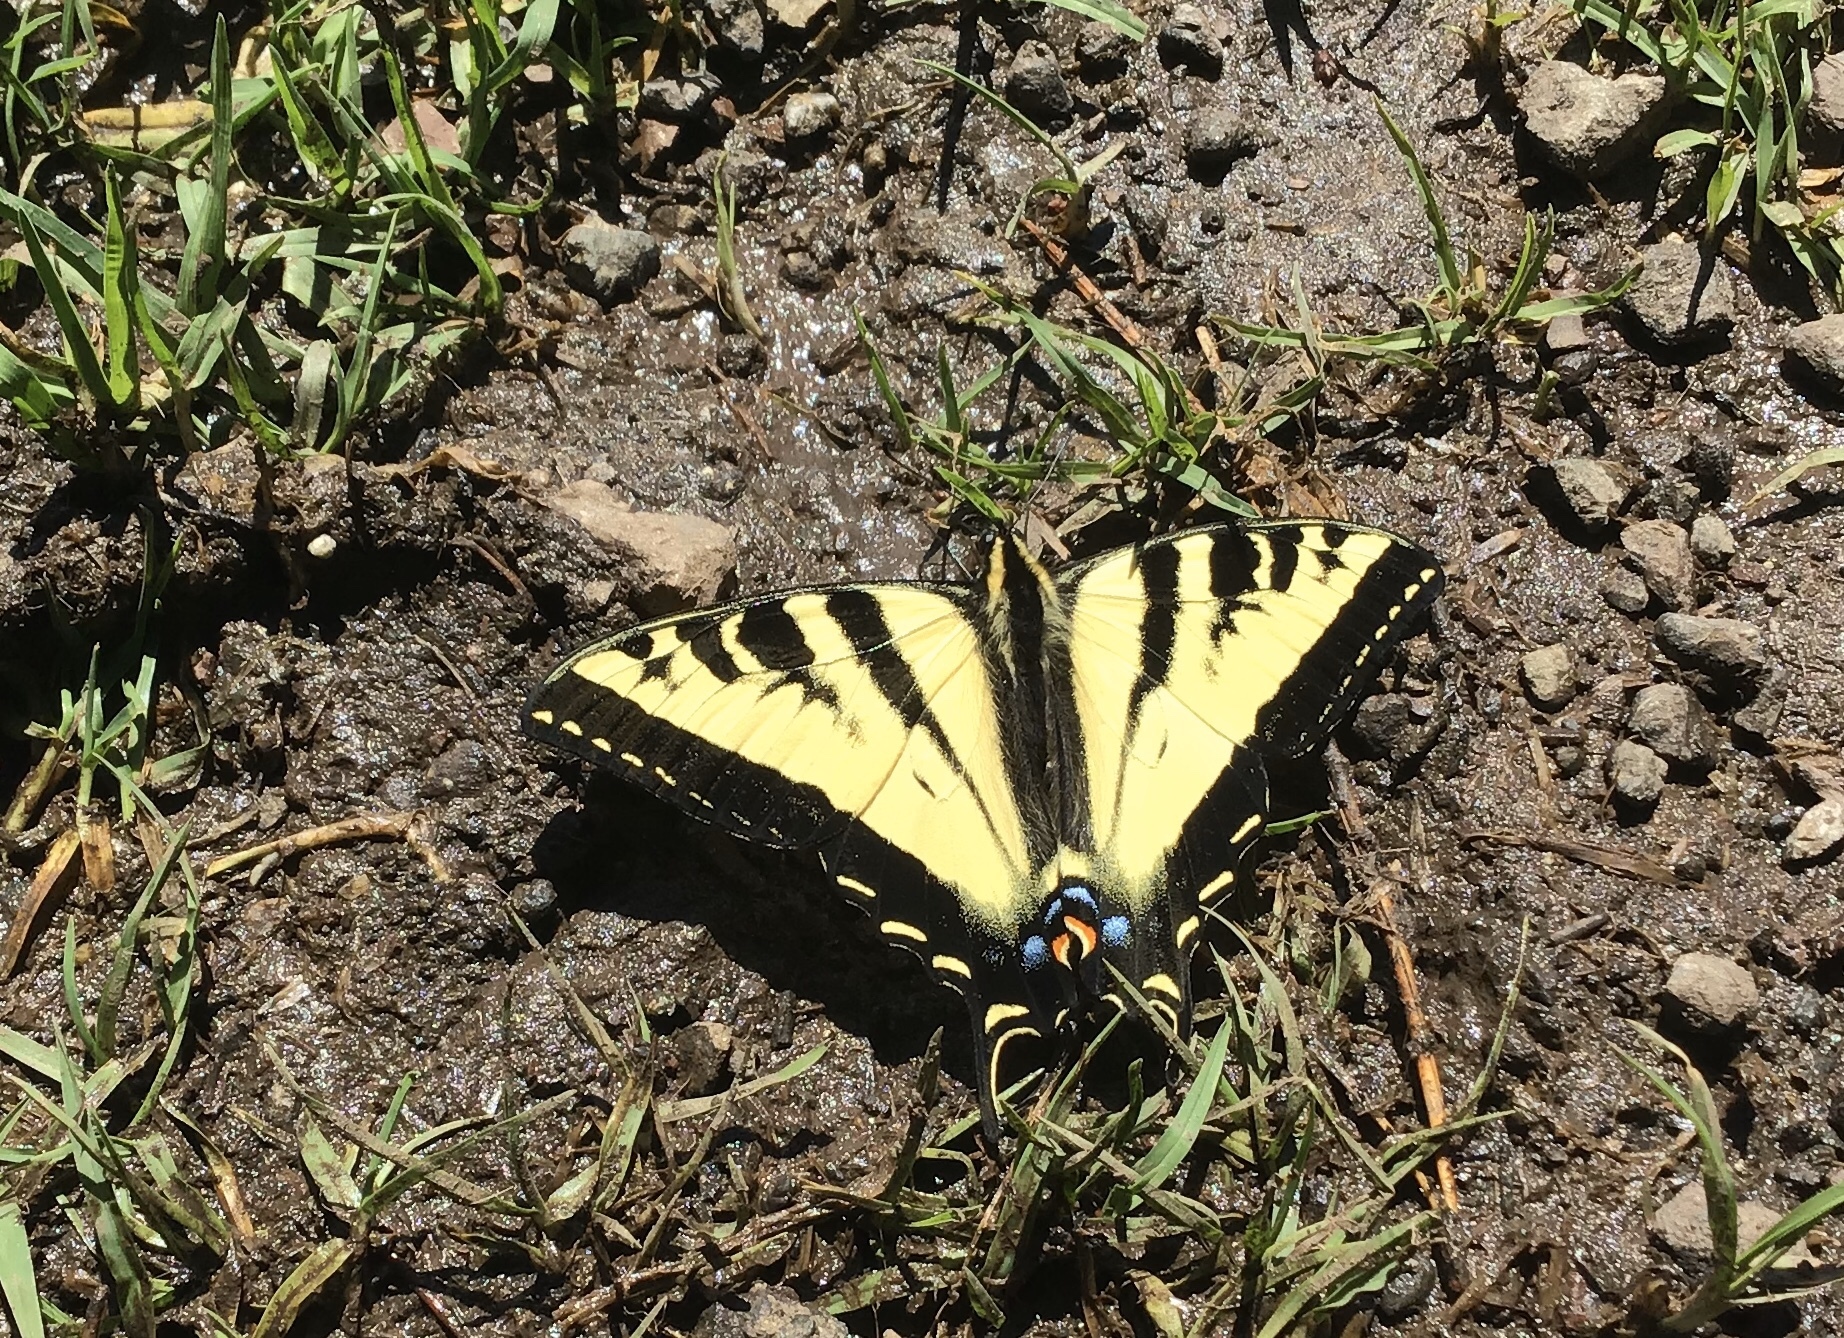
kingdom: Animalia
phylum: Arthropoda
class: Insecta
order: Lepidoptera
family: Papilionidae
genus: Papilio
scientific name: Papilio rutulus
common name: Western tiger swallowtail
